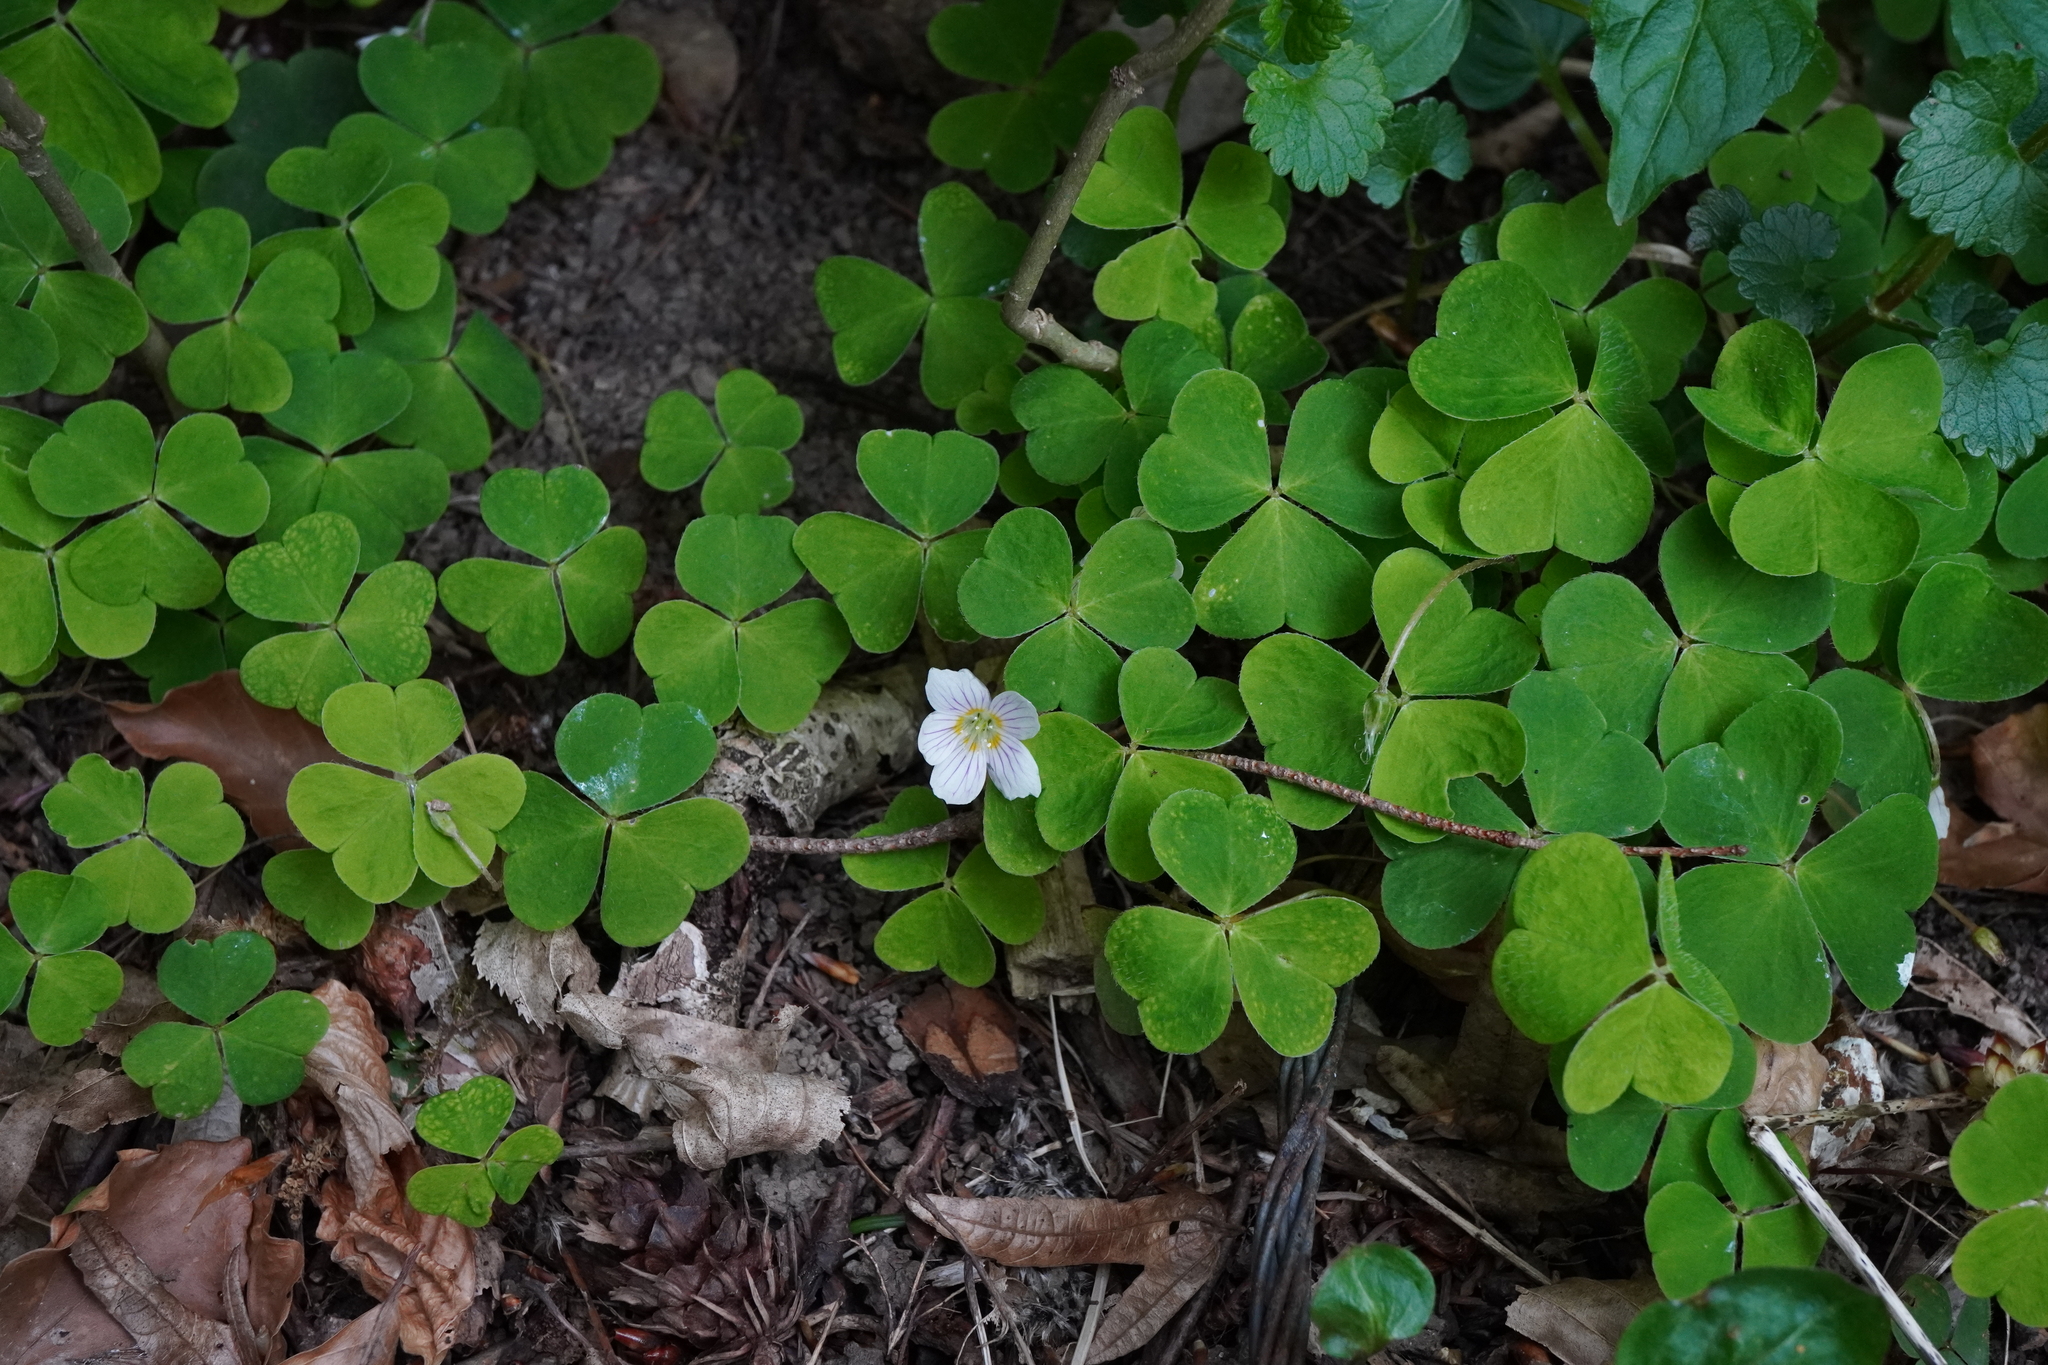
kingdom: Plantae
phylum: Tracheophyta
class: Magnoliopsida
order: Oxalidales
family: Oxalidaceae
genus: Oxalis
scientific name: Oxalis acetosella
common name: Wood-sorrel
